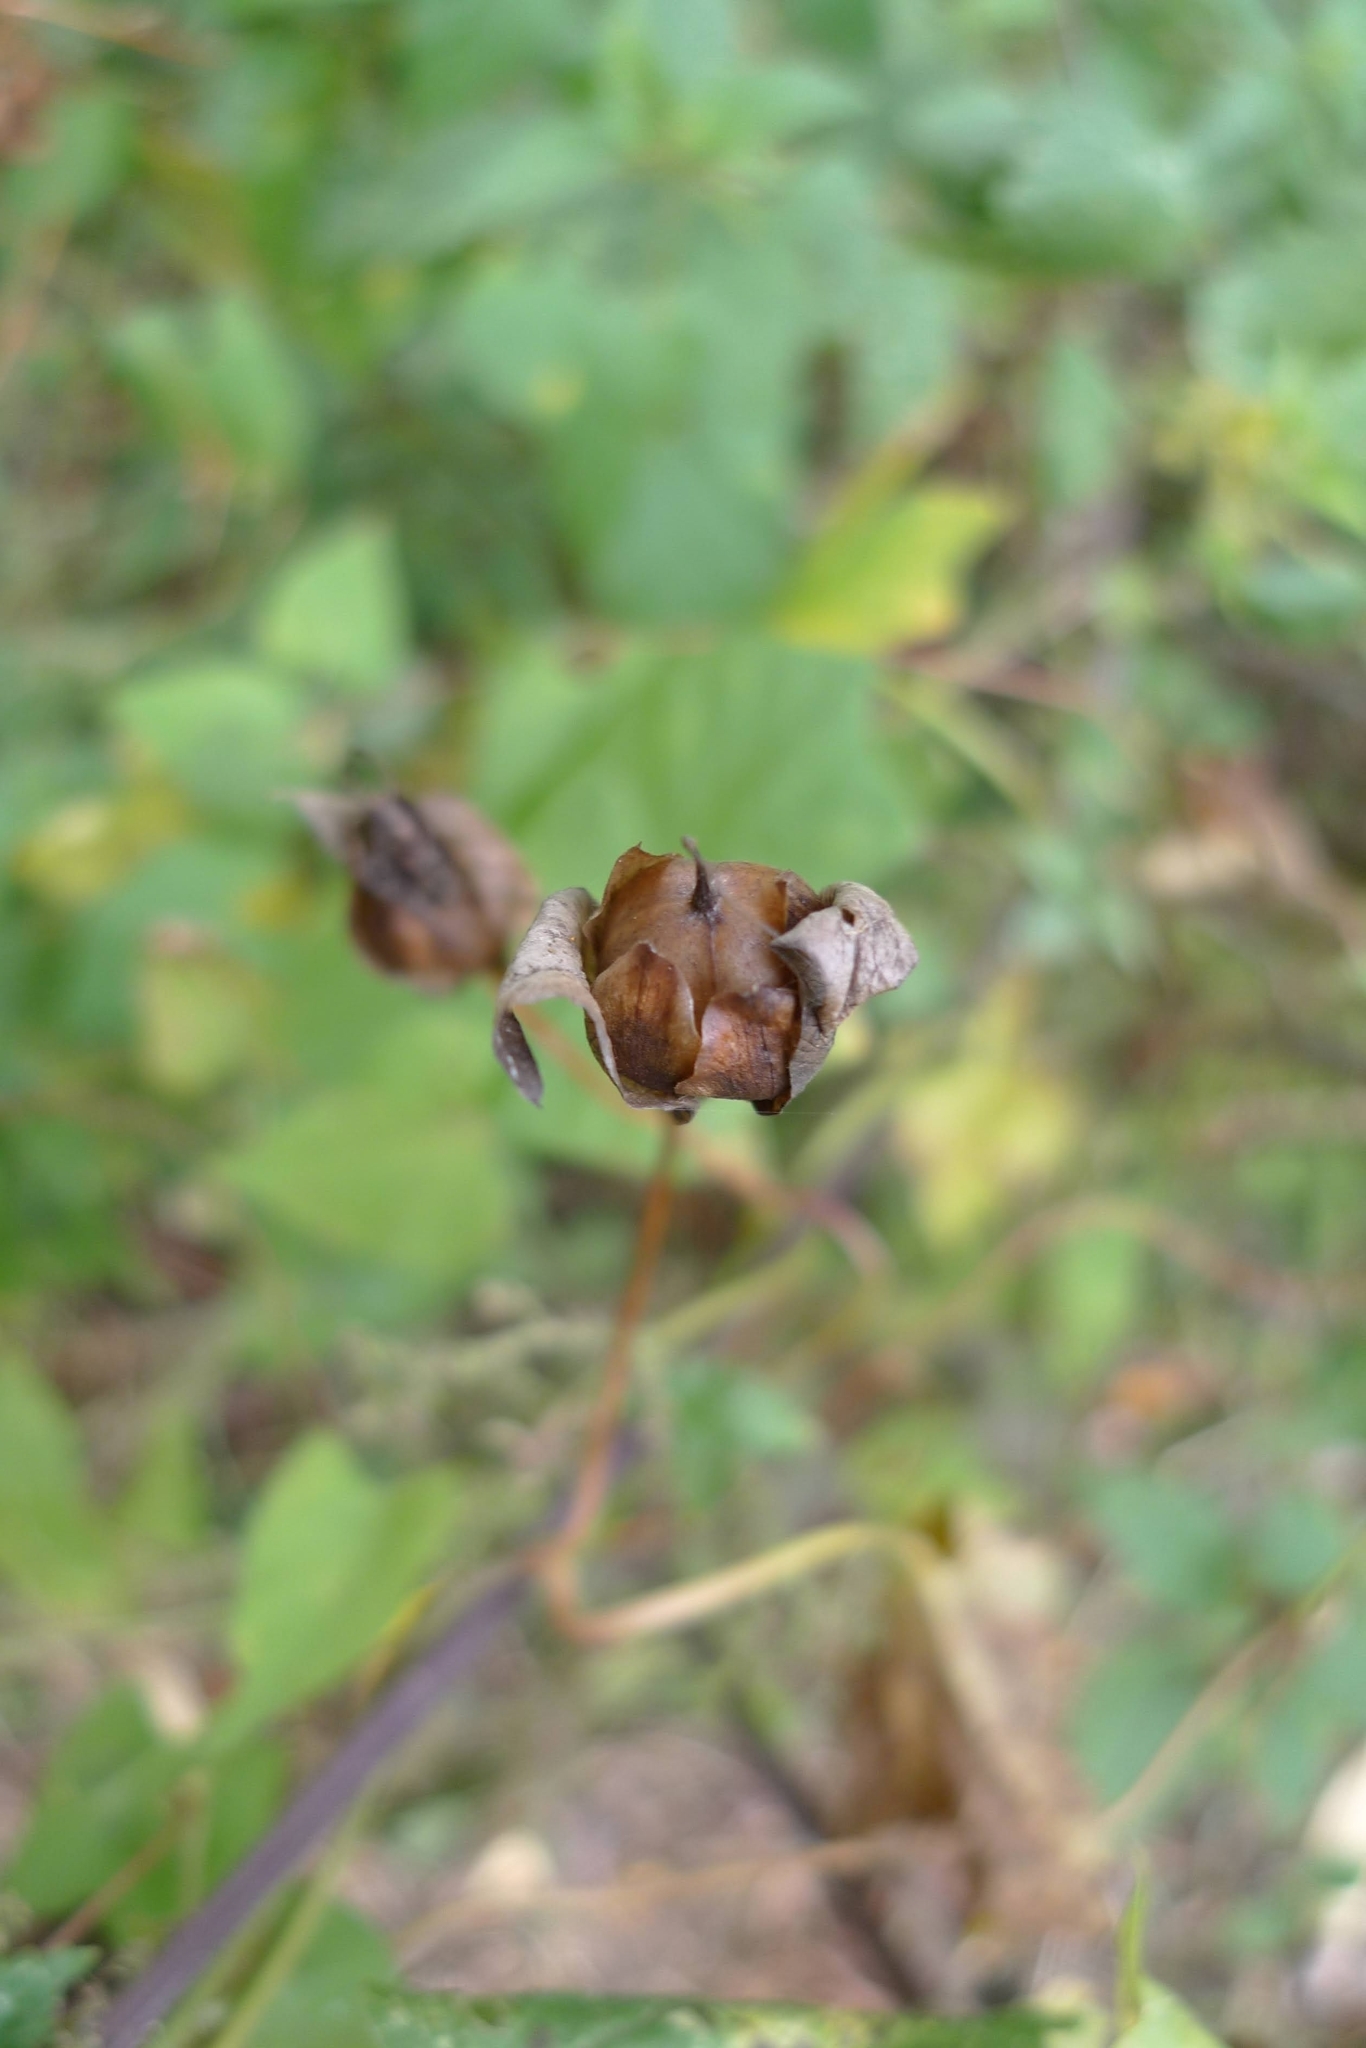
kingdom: Plantae
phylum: Tracheophyta
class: Magnoliopsida
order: Solanales
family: Convolvulaceae
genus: Calystegia
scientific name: Calystegia sepium
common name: Hedge bindweed
